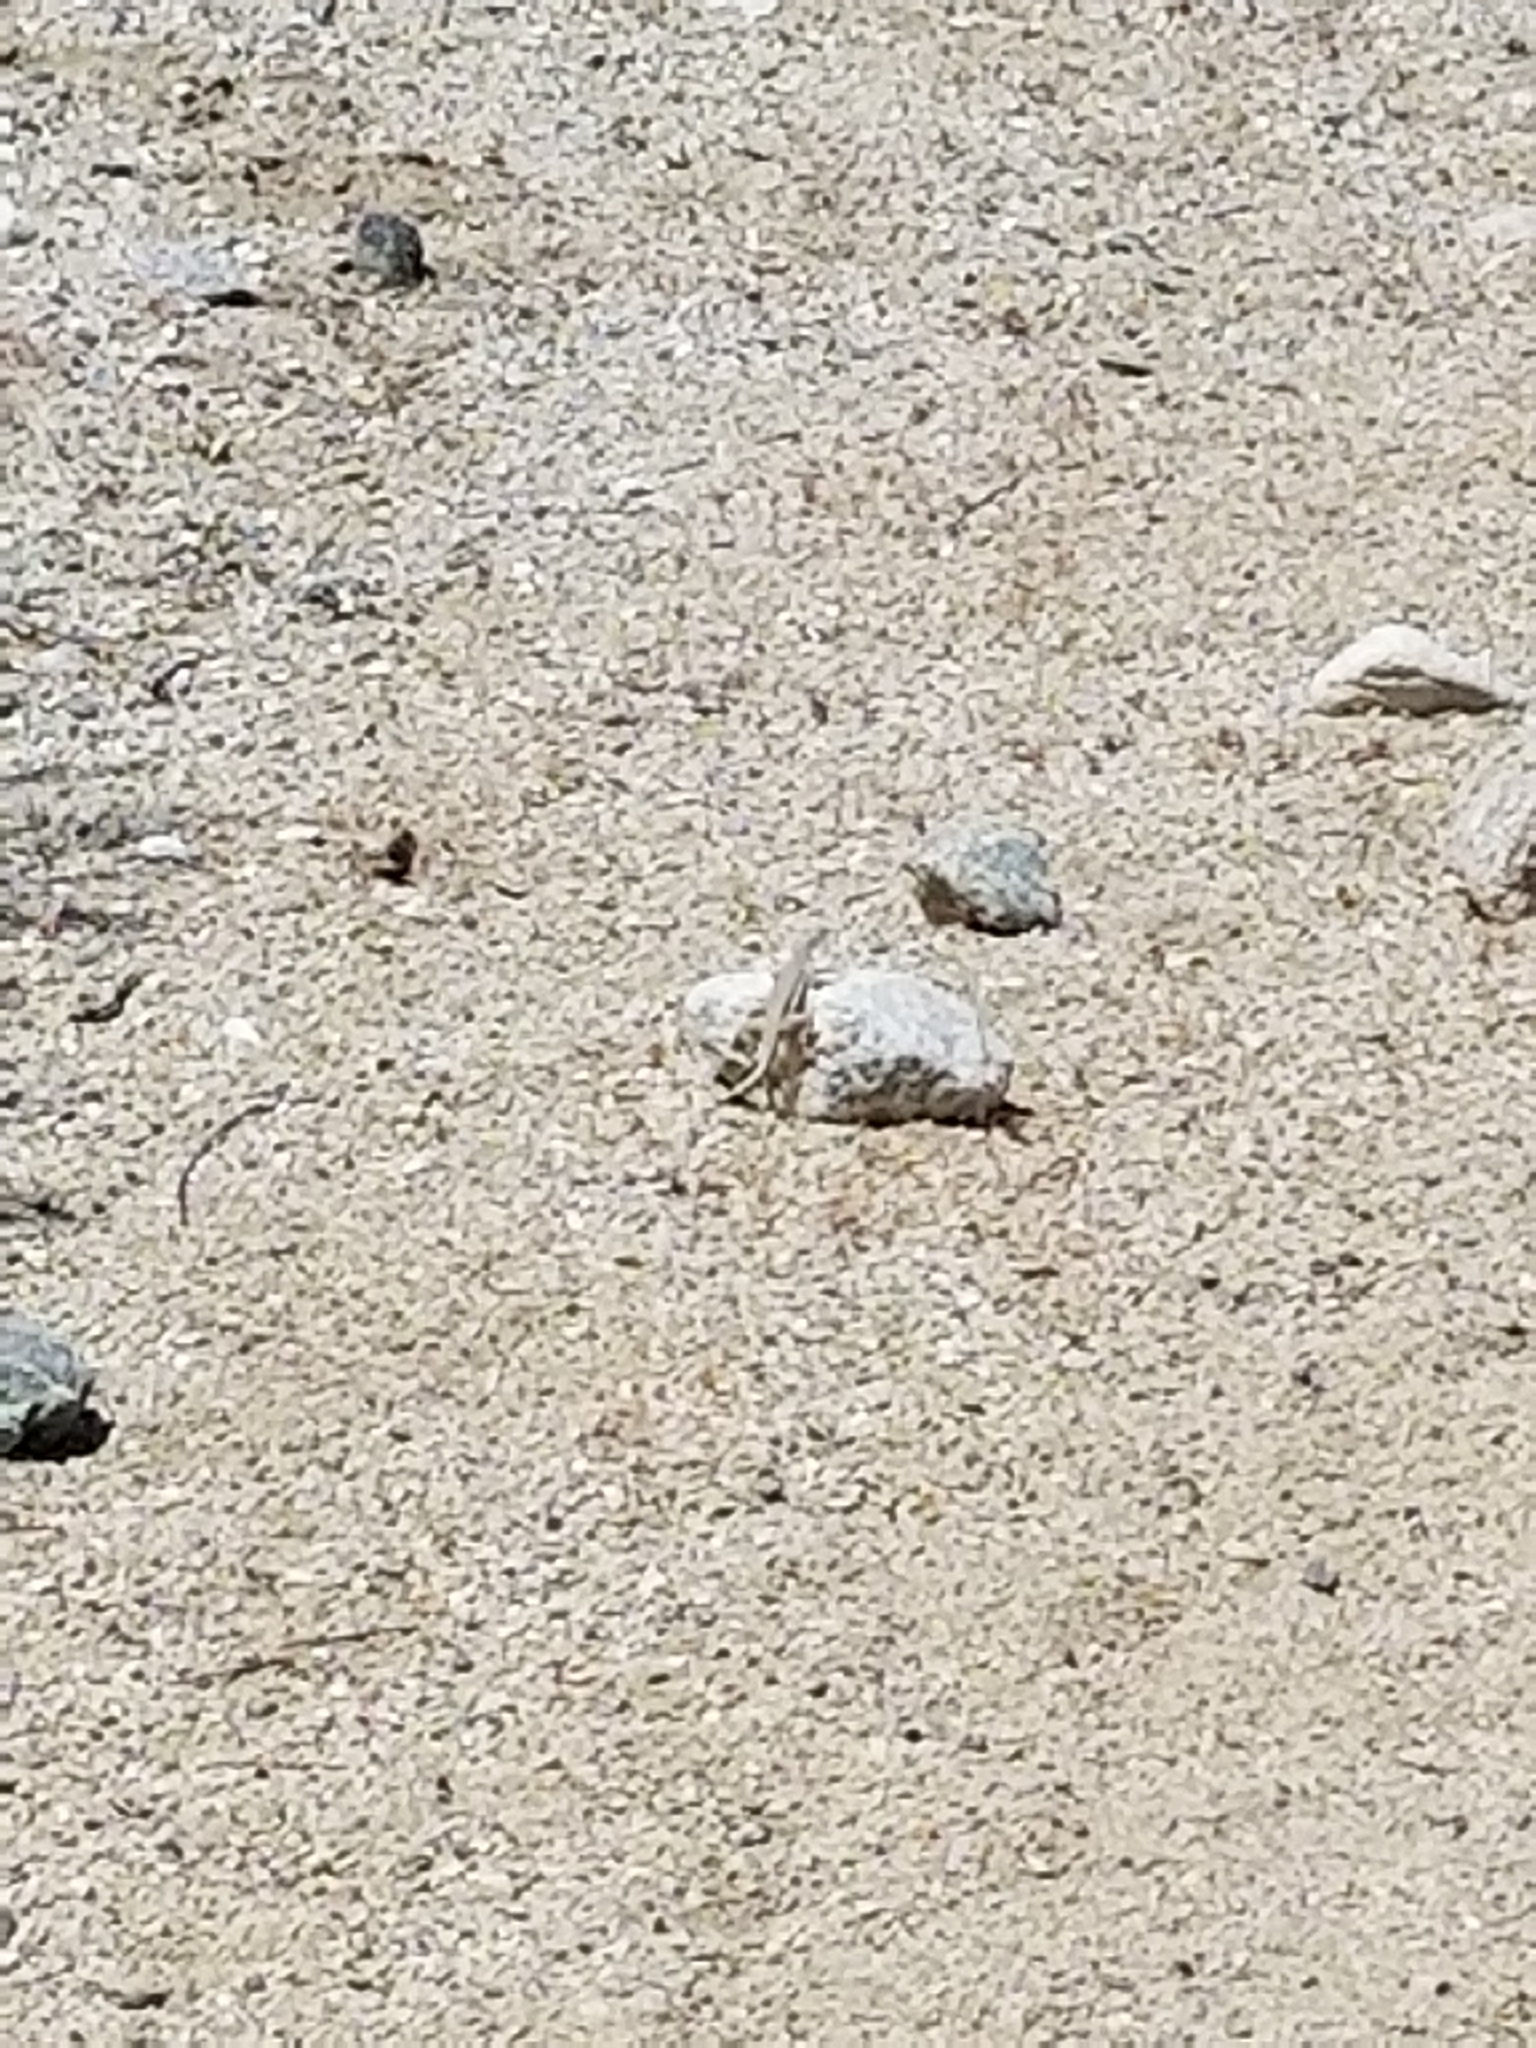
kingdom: Animalia
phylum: Chordata
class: Squamata
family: Phrynosomatidae
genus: Callisaurus
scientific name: Callisaurus draconoides
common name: Zebra-tailed lizard
